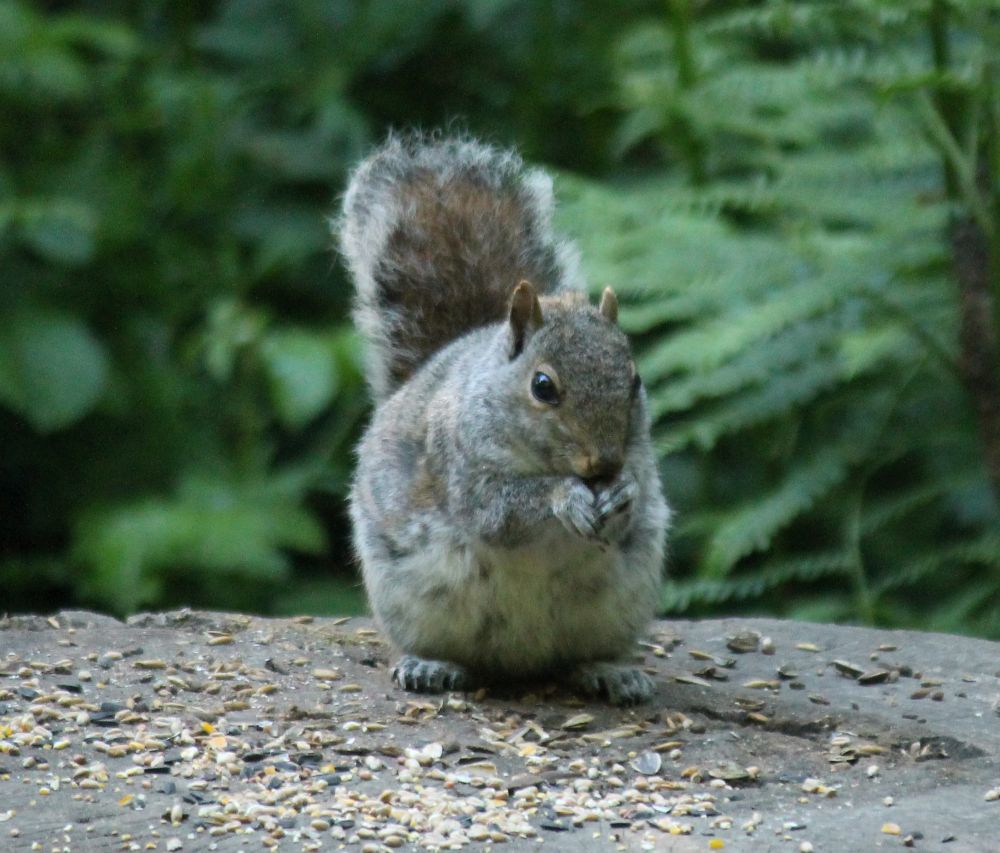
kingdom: Animalia
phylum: Chordata
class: Mammalia
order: Rodentia
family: Sciuridae
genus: Sciurus
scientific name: Sciurus carolinensis
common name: Eastern gray squirrel
